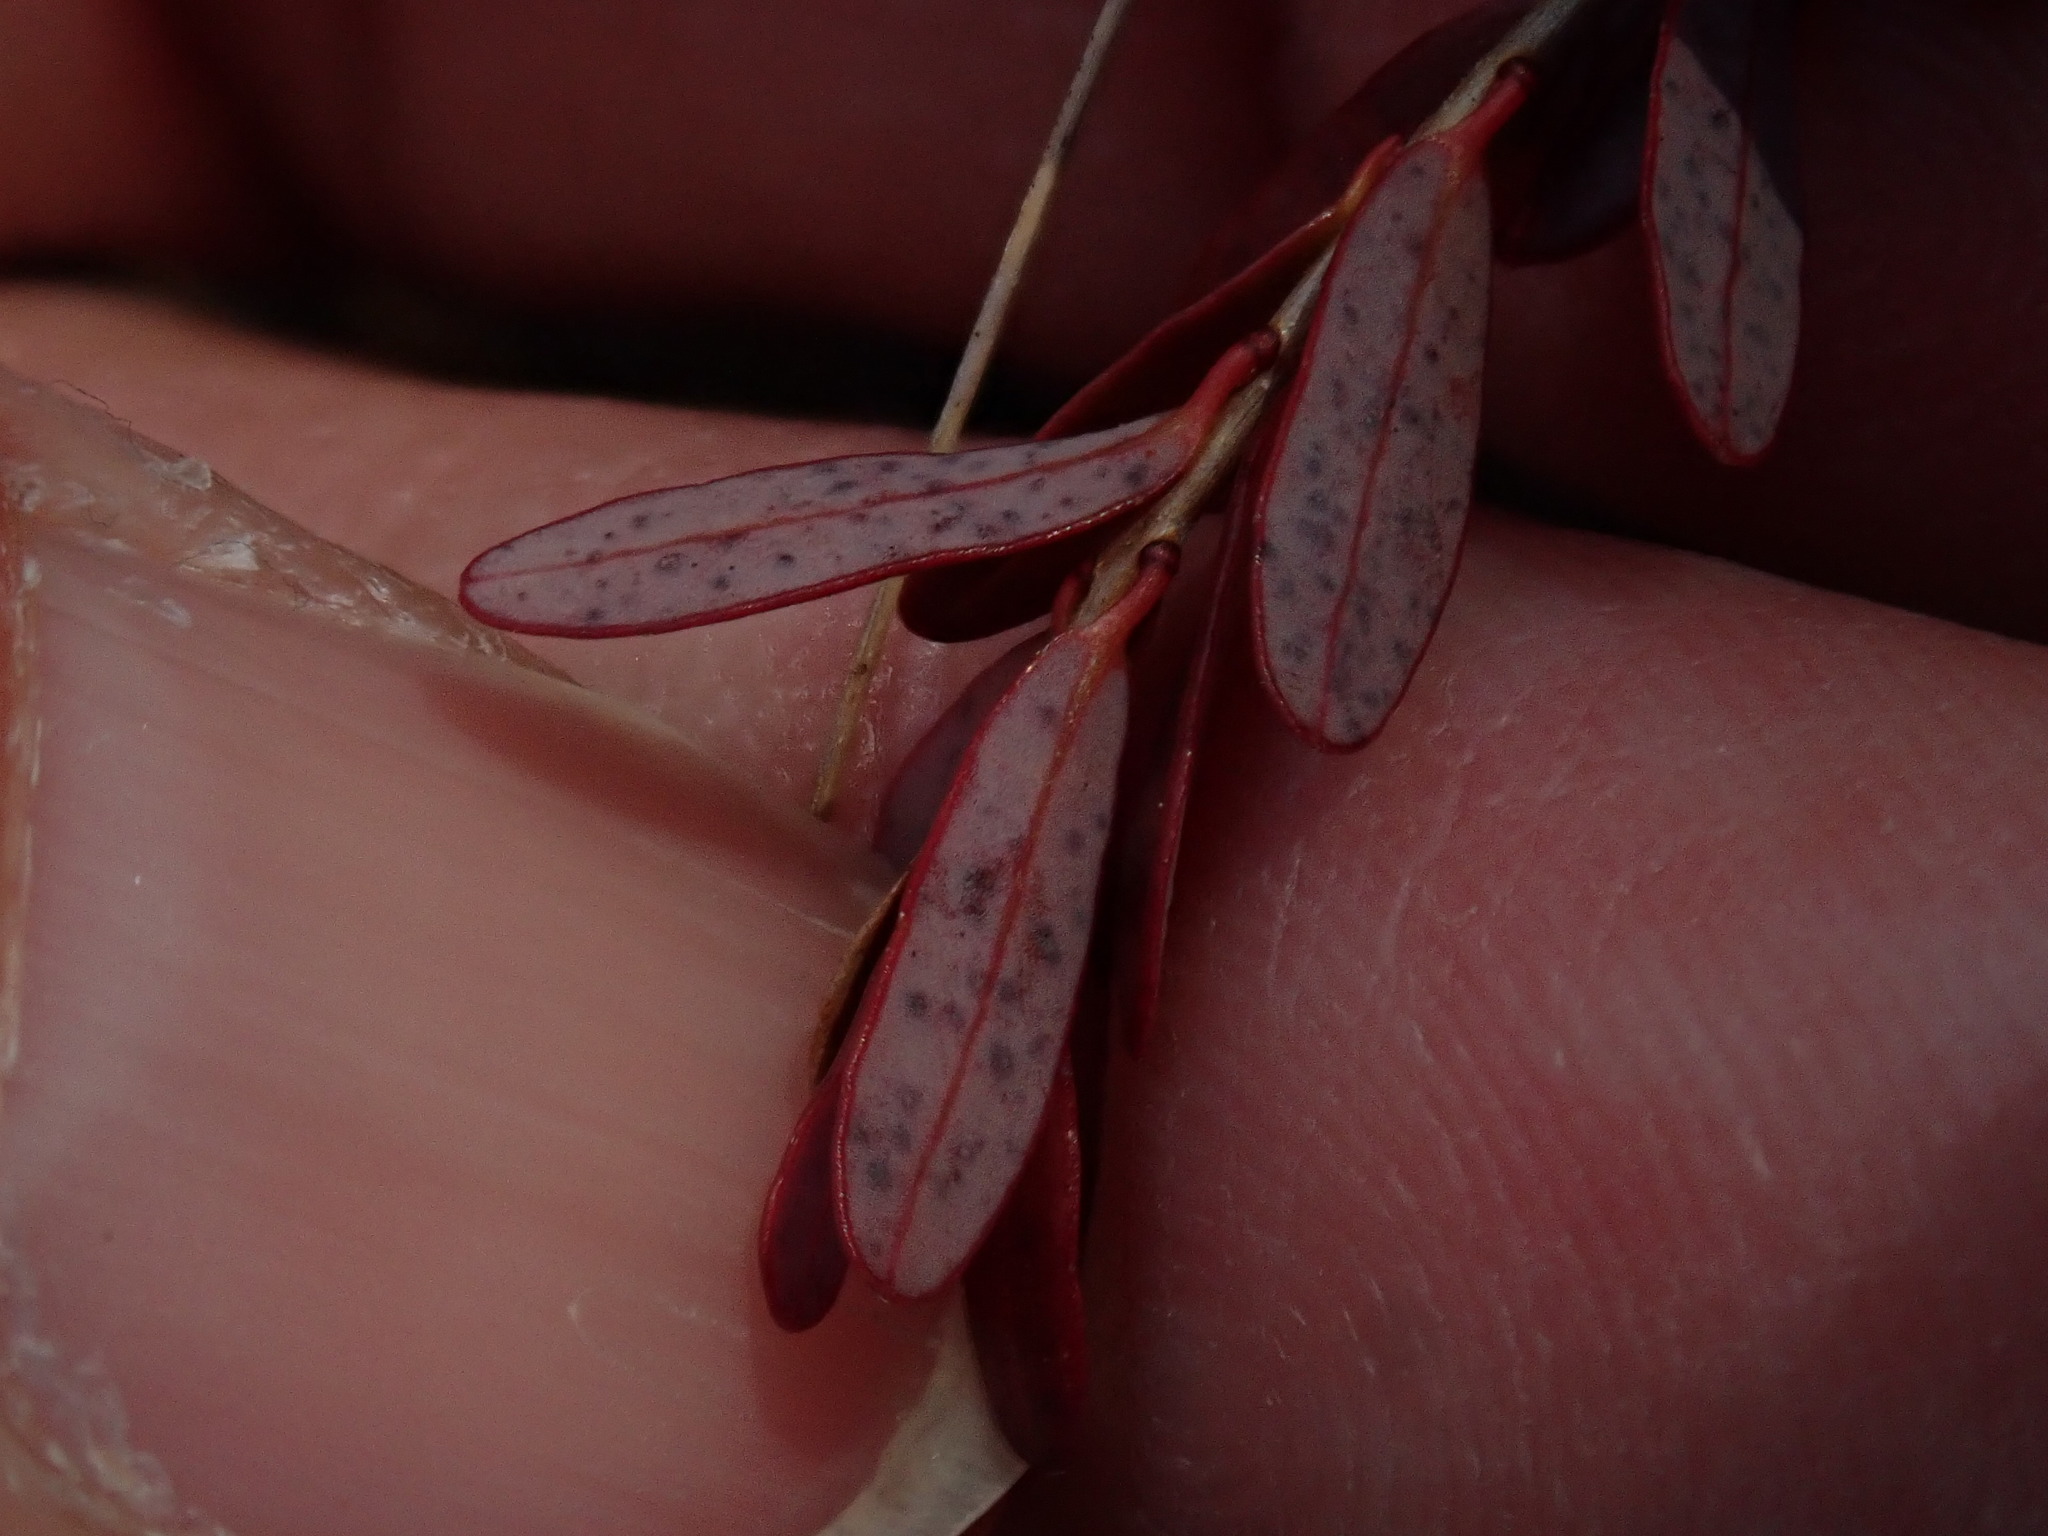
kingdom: Plantae
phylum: Tracheophyta
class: Magnoliopsida
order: Ericales
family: Ericaceae
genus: Vaccinium
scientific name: Vaccinium macrocarpon
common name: American cranberry
